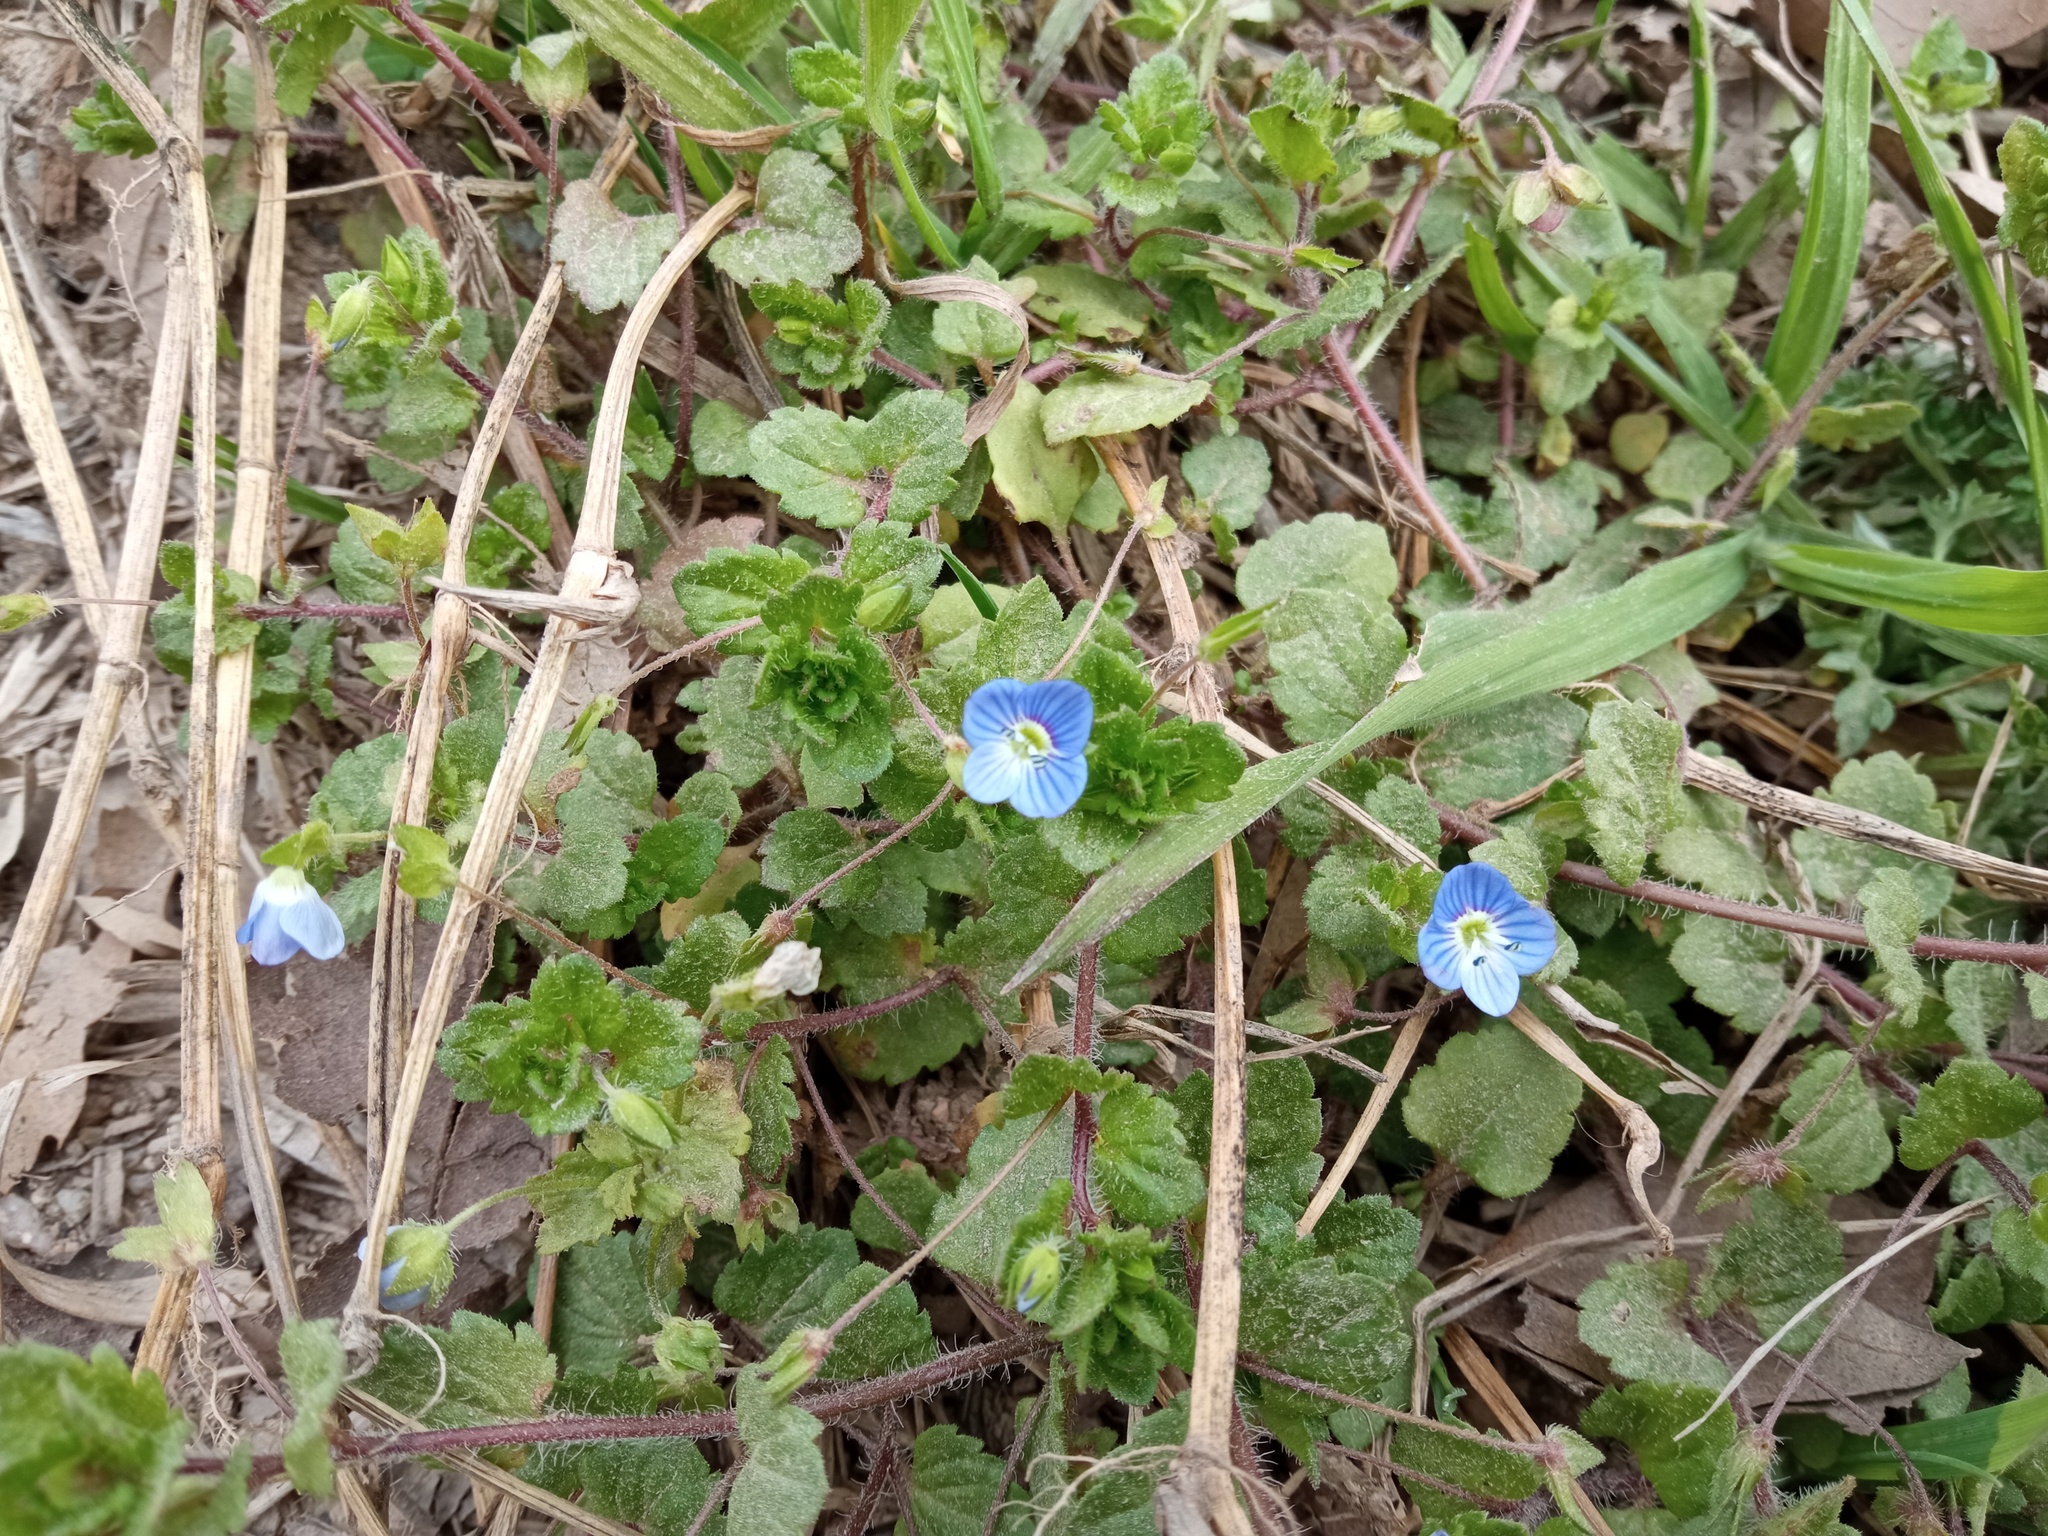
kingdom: Plantae
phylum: Tracheophyta
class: Magnoliopsida
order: Lamiales
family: Plantaginaceae
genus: Veronica
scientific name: Veronica persica
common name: Common field-speedwell
